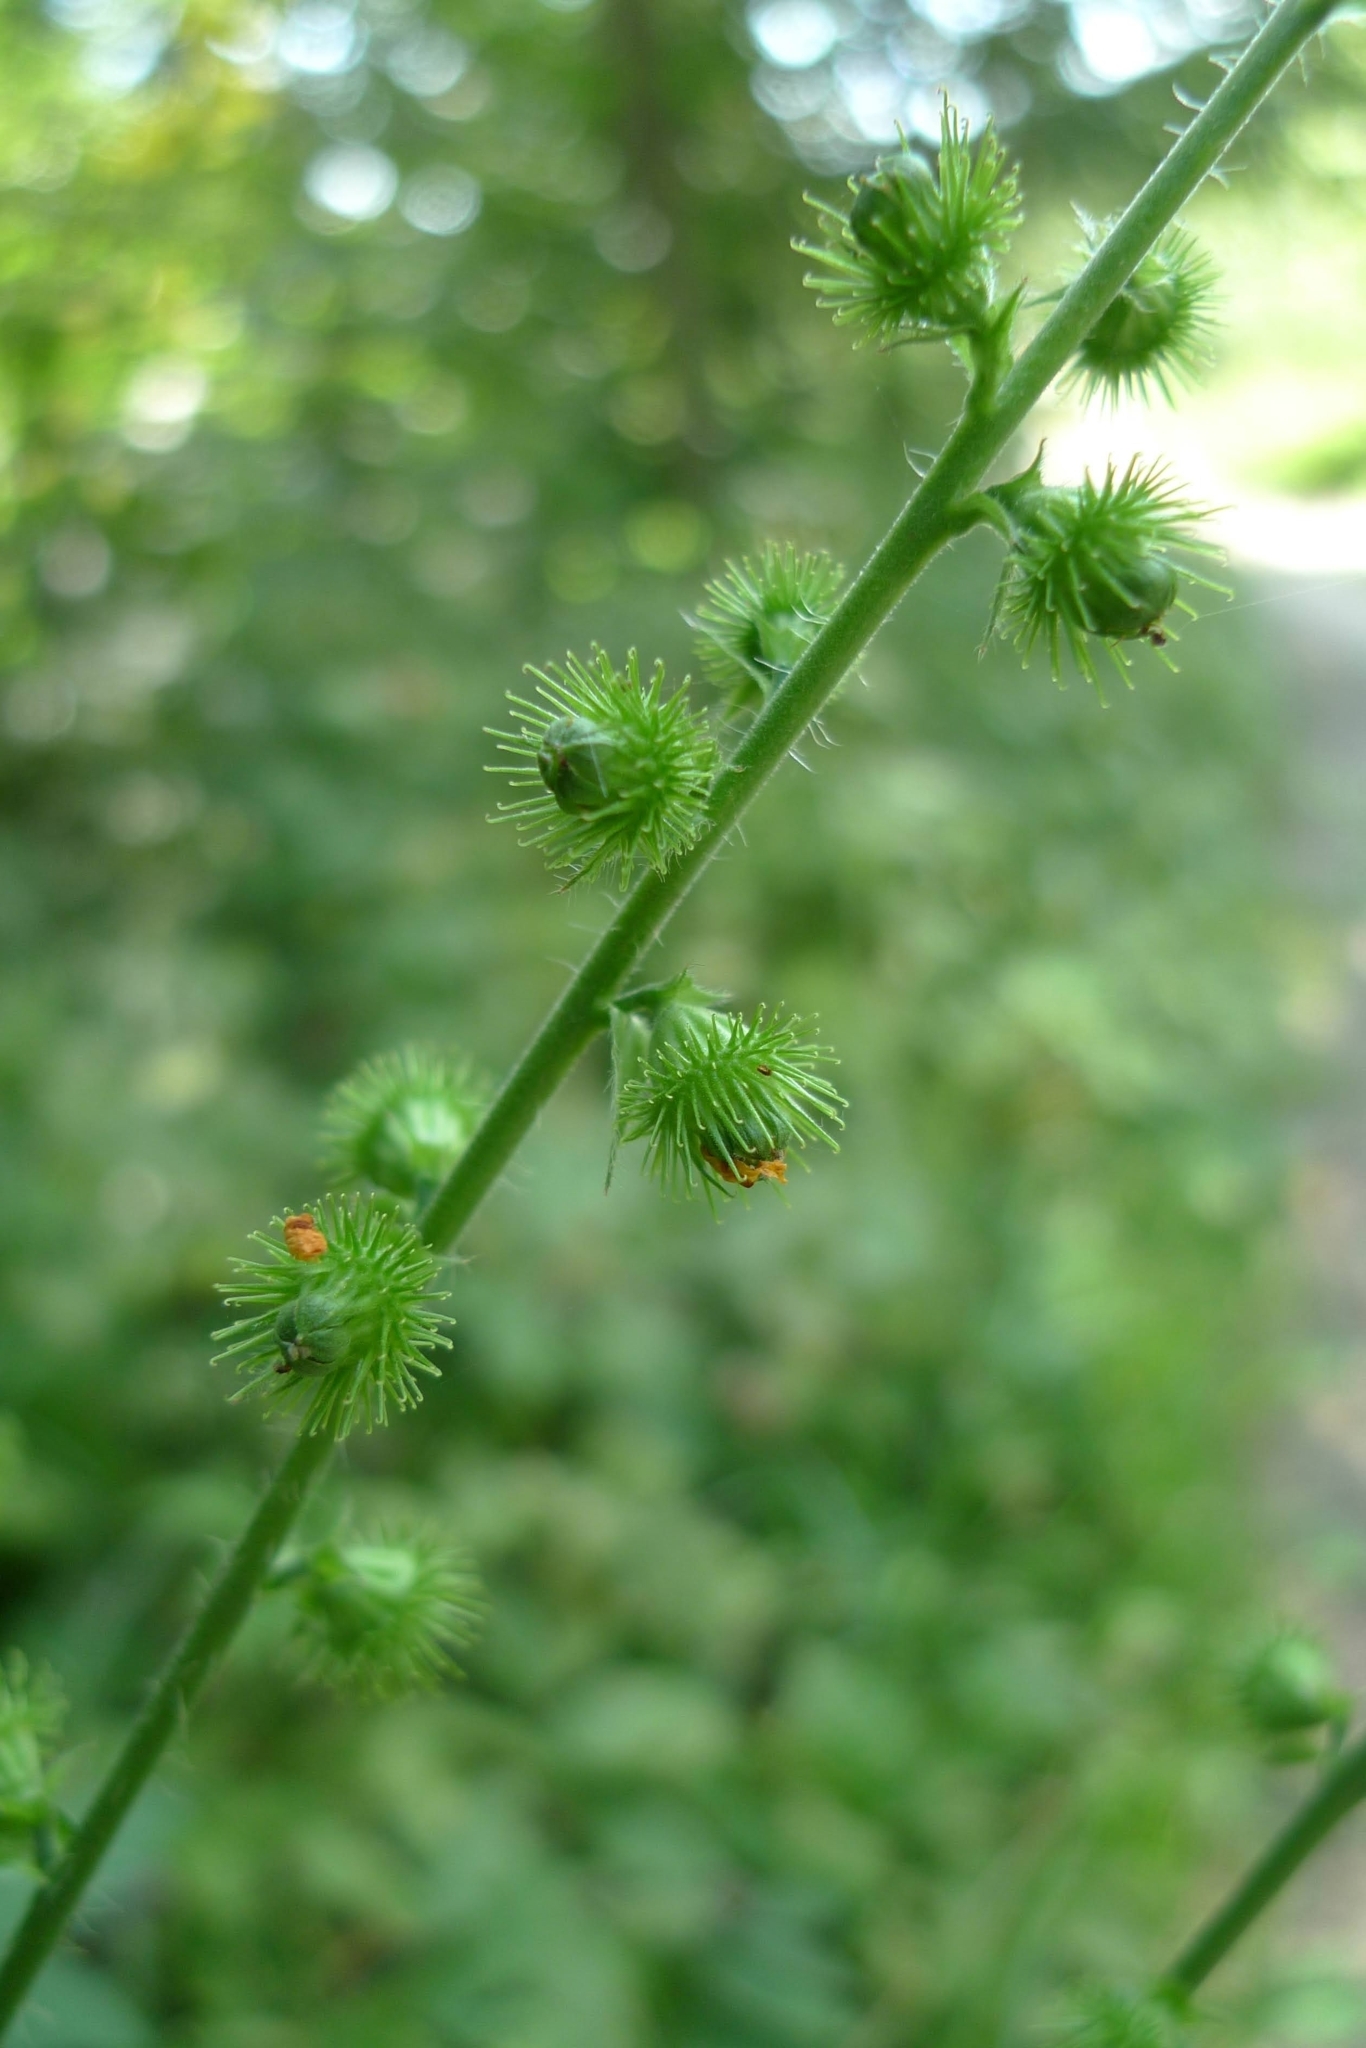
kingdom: Plantae
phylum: Tracheophyta
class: Magnoliopsida
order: Rosales
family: Rosaceae
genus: Agrimonia
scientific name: Agrimonia eupatoria
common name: Agrimony
